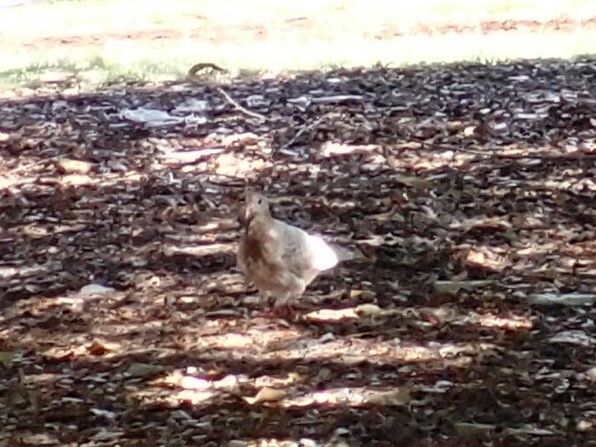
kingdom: Animalia
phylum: Chordata
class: Aves
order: Columbiformes
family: Columbidae
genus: Columba
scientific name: Columba livia
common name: Rock pigeon
